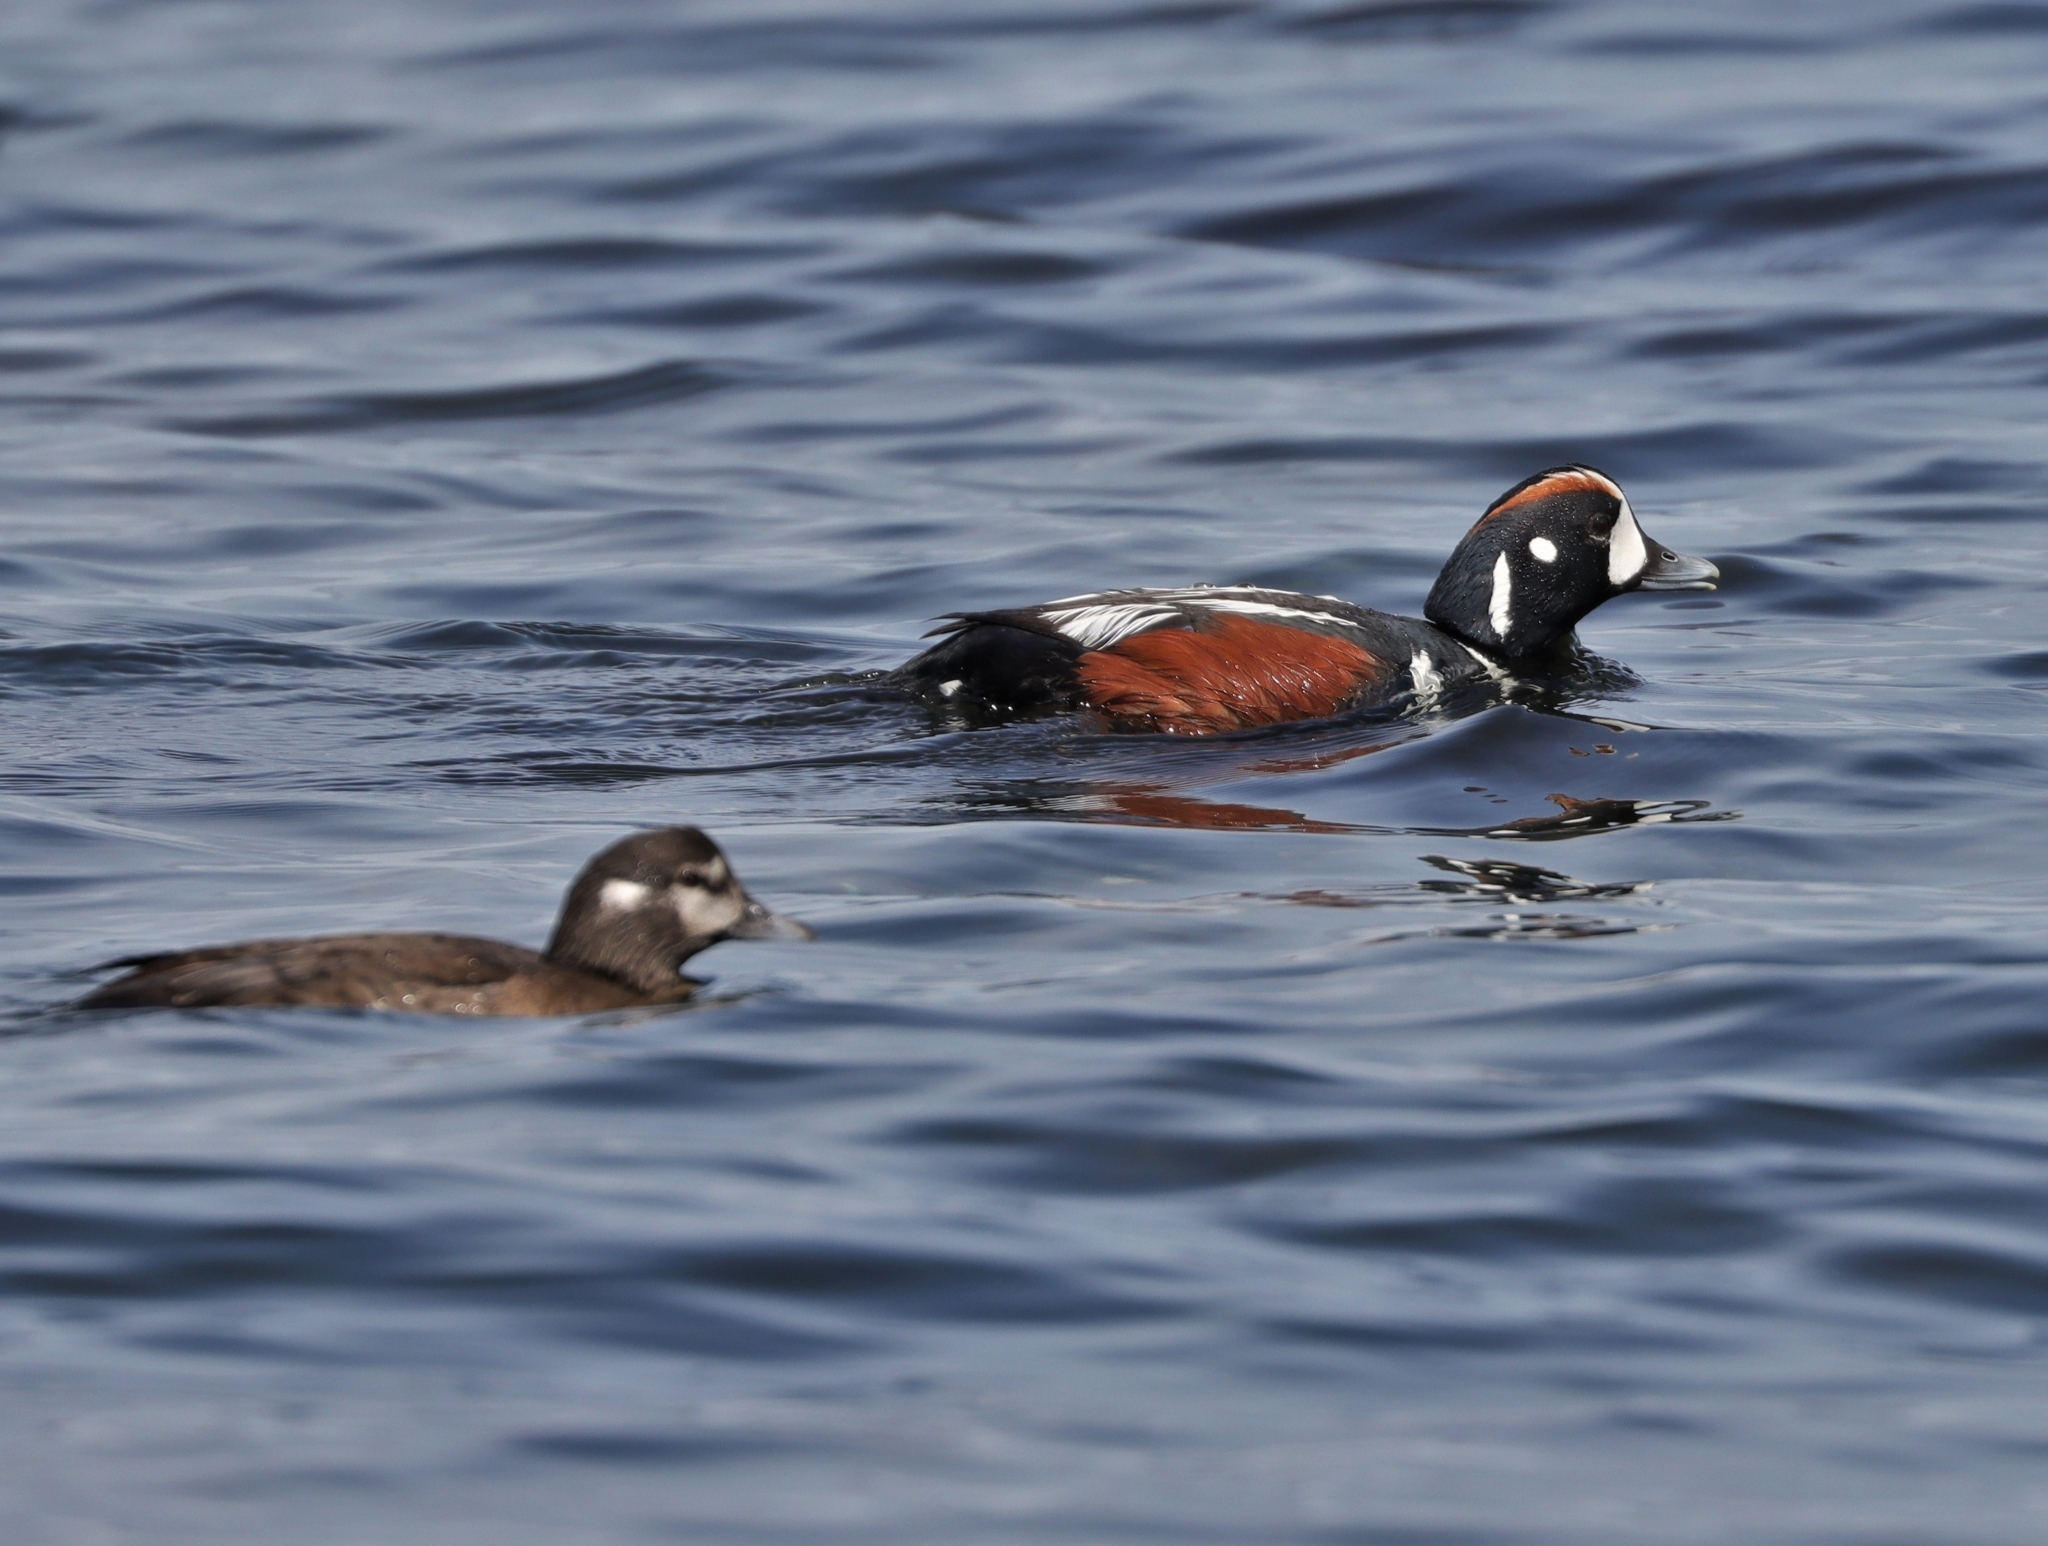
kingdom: Animalia
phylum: Chordata
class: Aves
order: Anseriformes
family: Anatidae
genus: Histrionicus
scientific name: Histrionicus histrionicus
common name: Harlequin duck
